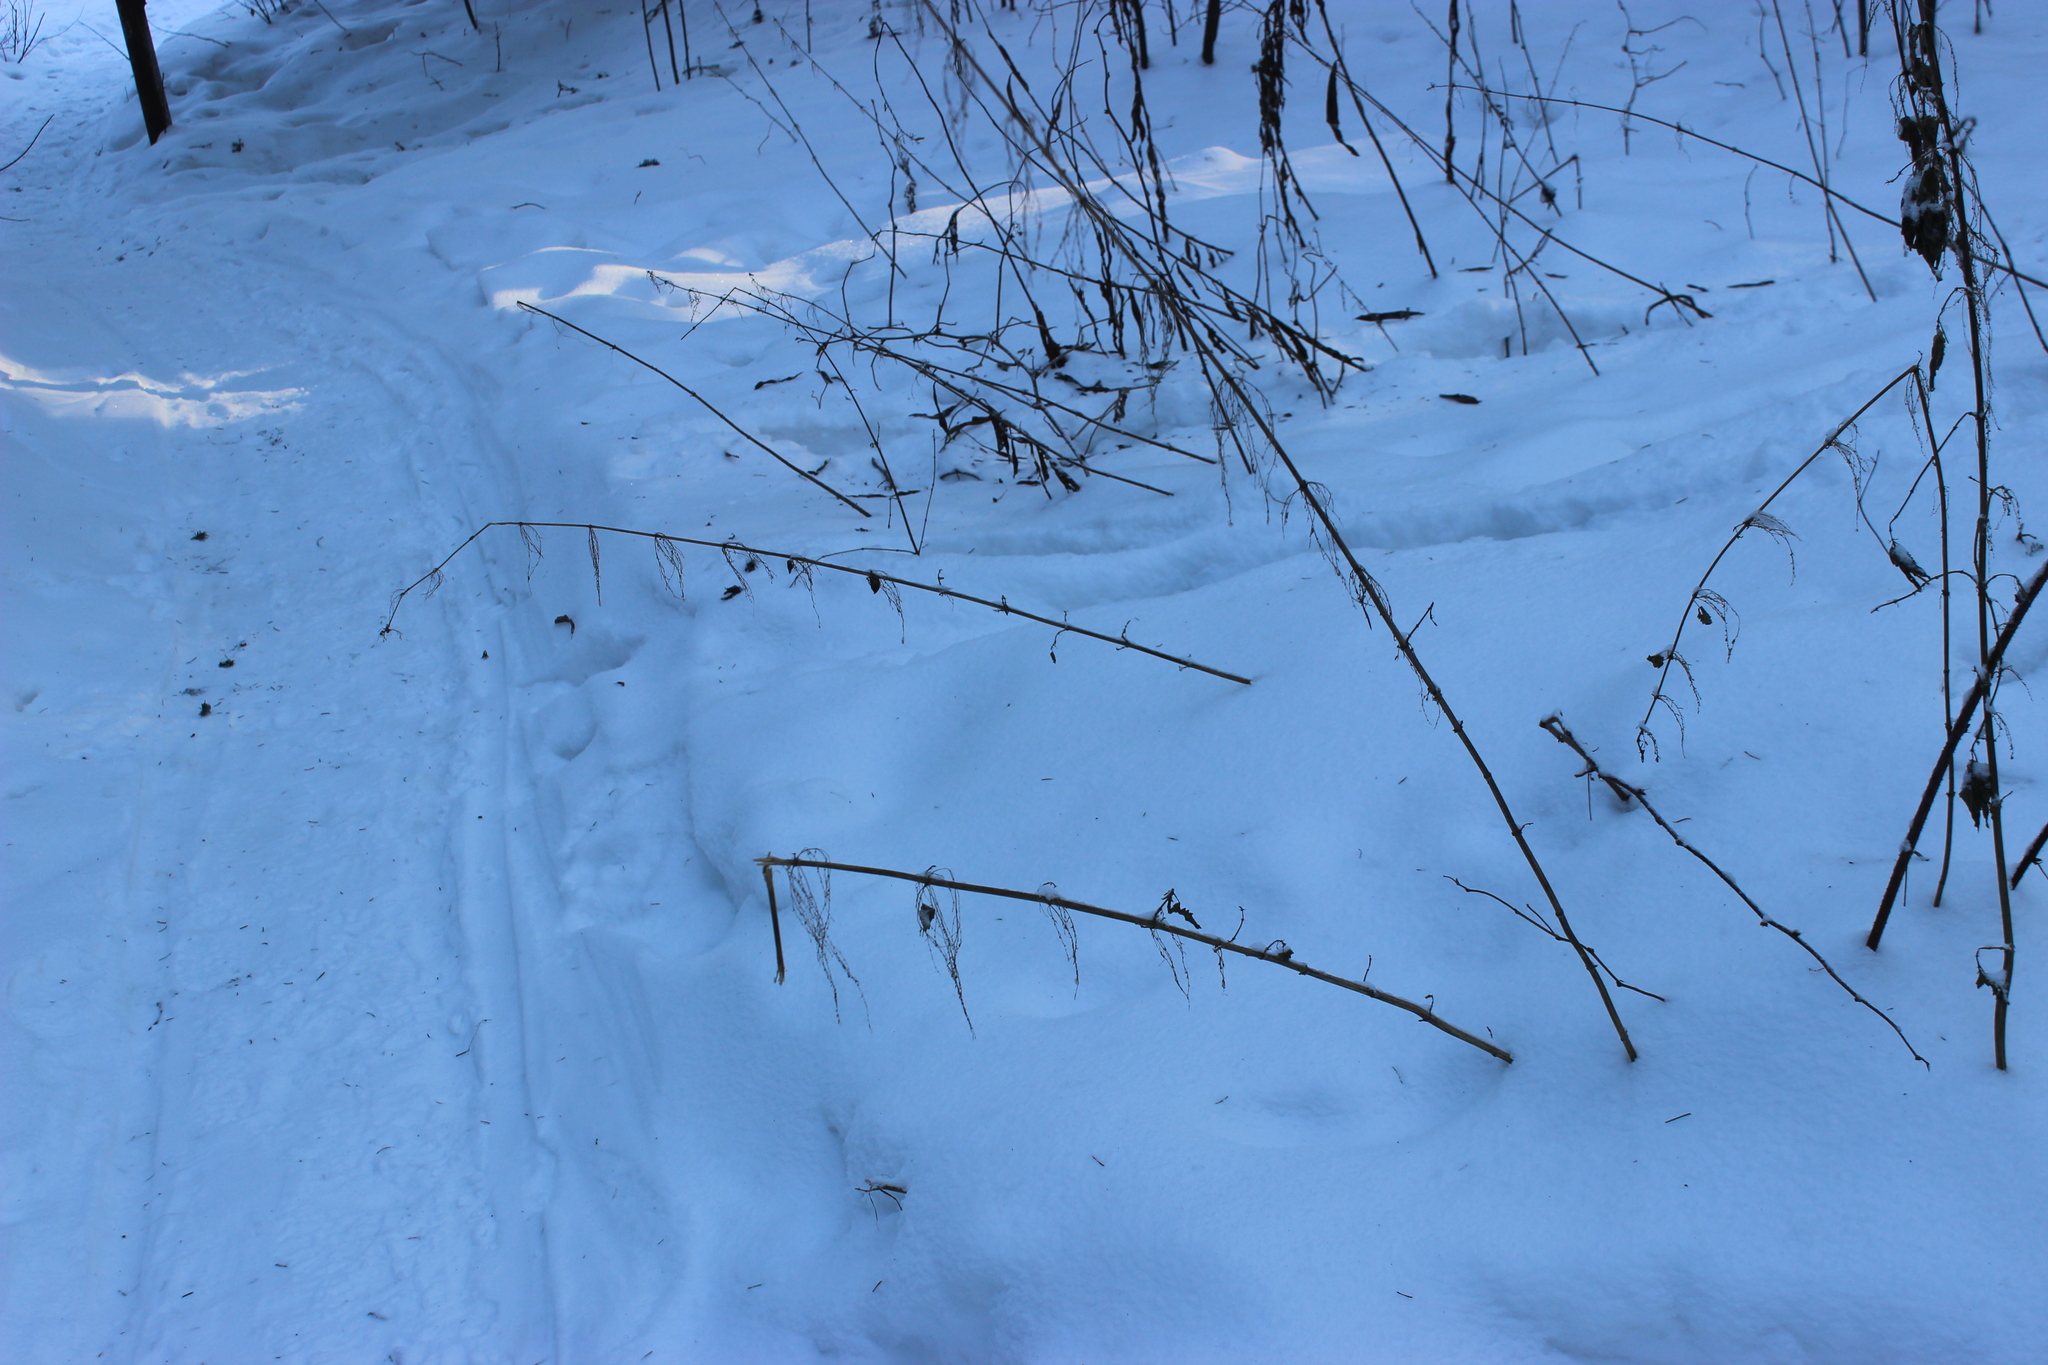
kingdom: Plantae
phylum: Tracheophyta
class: Magnoliopsida
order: Rosales
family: Urticaceae
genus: Urtica
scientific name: Urtica dioica
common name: Common nettle
